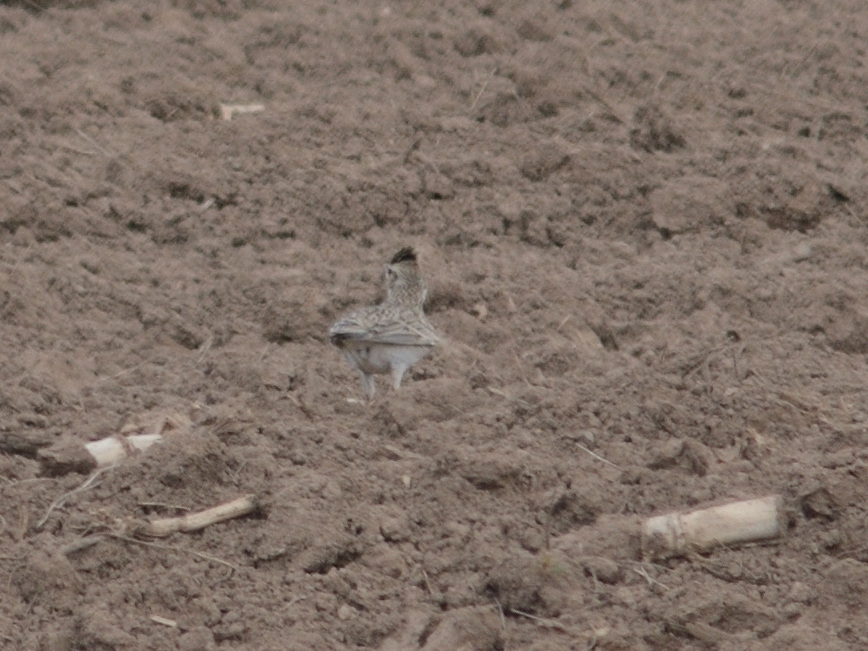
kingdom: Animalia
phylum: Chordata
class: Aves
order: Passeriformes
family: Alaudidae
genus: Alauda
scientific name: Alauda arvensis
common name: Eurasian skylark
